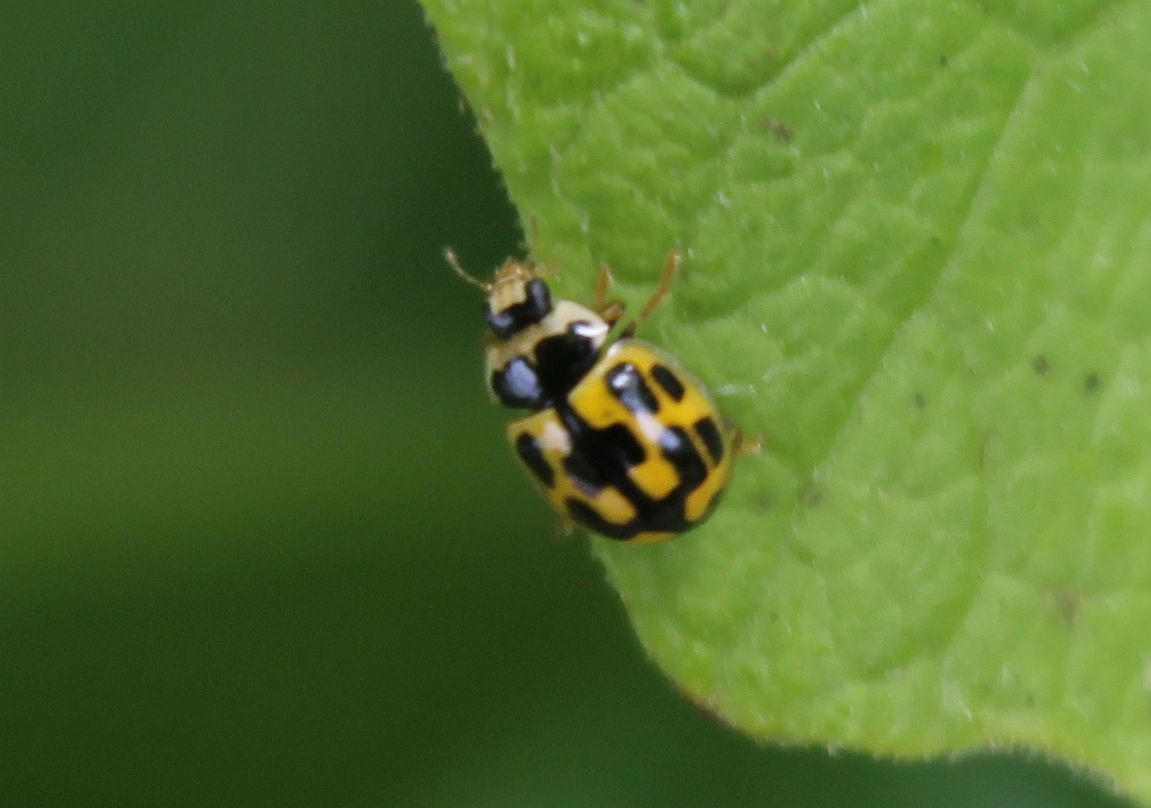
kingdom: Animalia
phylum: Arthropoda
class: Insecta
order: Coleoptera
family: Coccinellidae
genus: Propylaea
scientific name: Propylaea quatuordecimpunctata
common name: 14-spotted ladybird beetle
